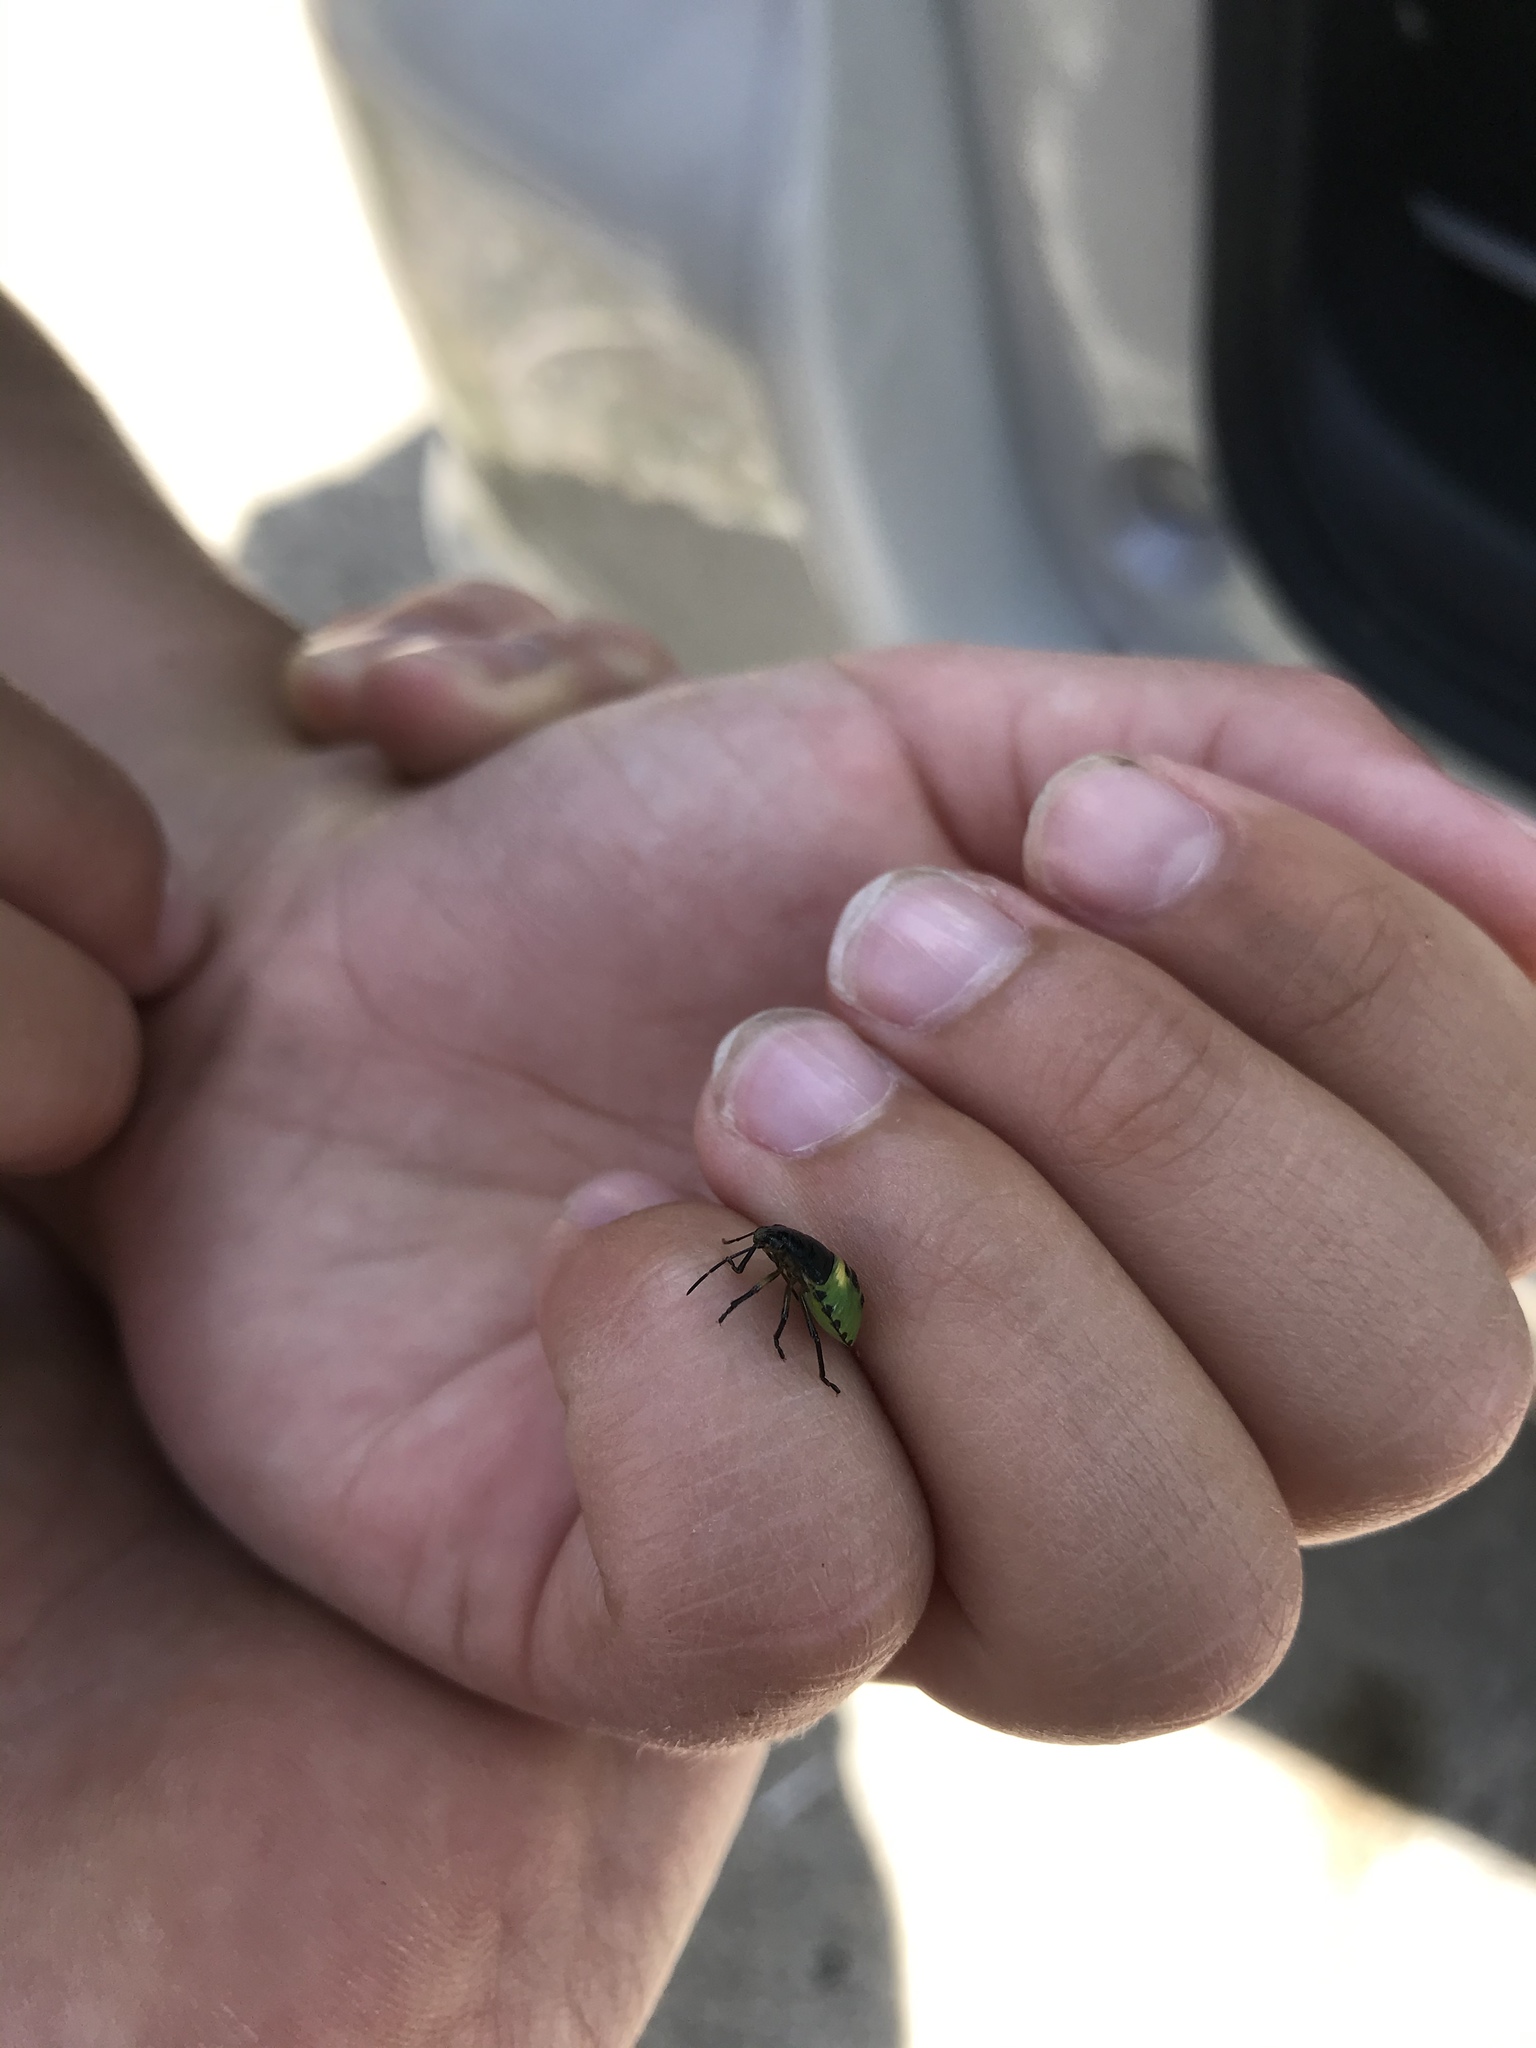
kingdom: Animalia
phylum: Arthropoda
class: Insecta
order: Hemiptera
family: Pentatomidae
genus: Glaucias
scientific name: Glaucias amyota
